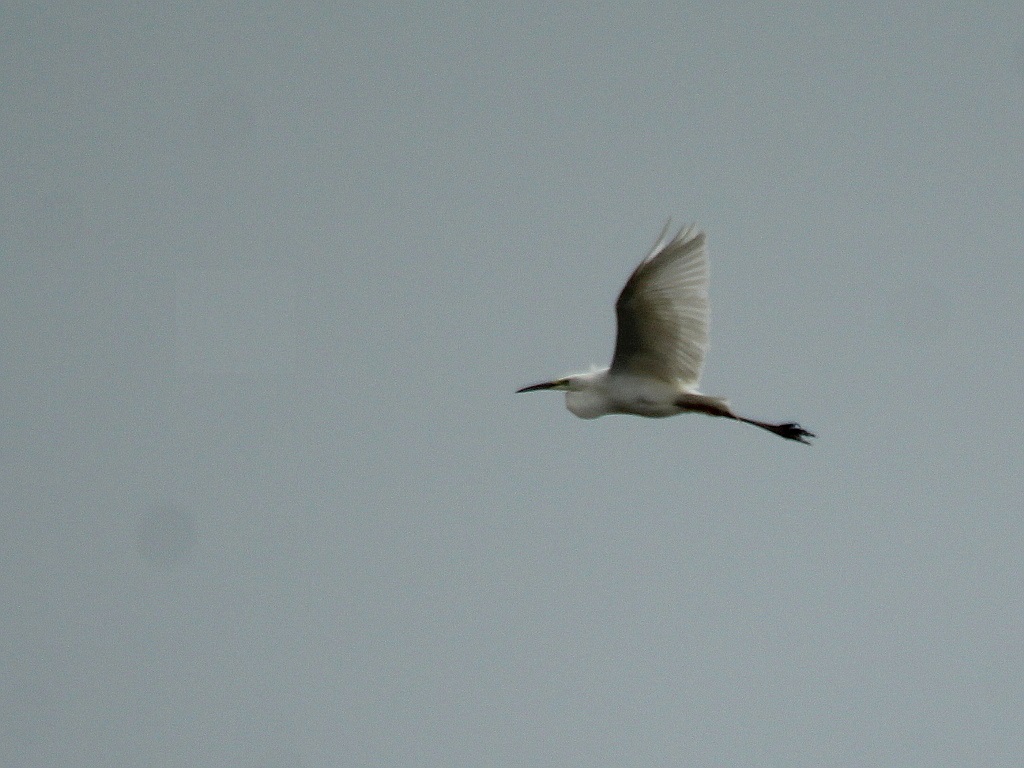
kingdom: Animalia
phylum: Chordata
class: Aves
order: Pelecaniformes
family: Ardeidae
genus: Ardea
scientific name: Ardea alba
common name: Great egret
